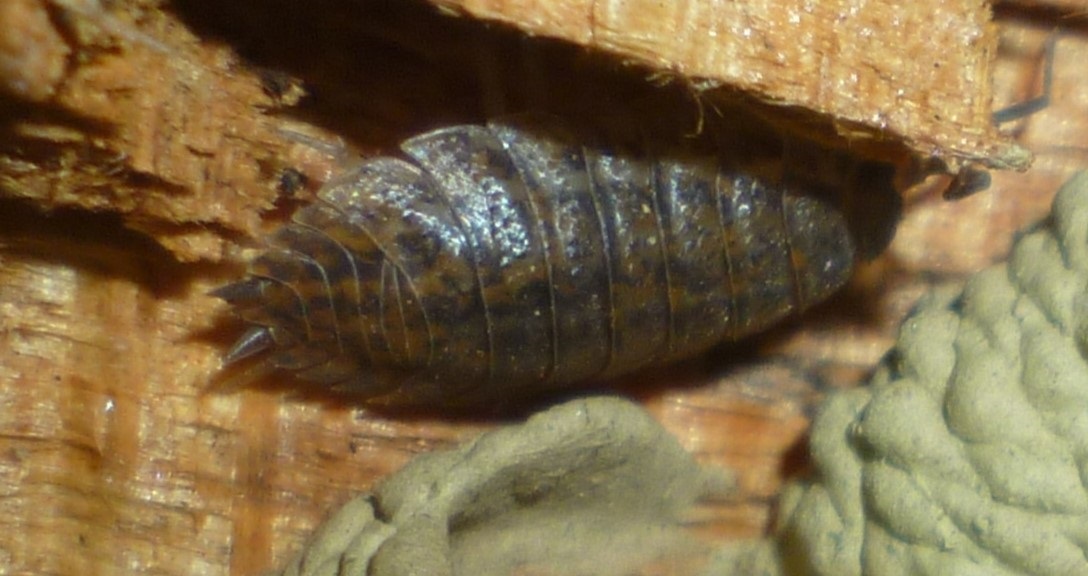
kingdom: Animalia
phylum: Arthropoda
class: Malacostraca
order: Isopoda
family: Trachelipodidae
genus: Trachelipus
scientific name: Trachelipus rathkii
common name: Isopod
